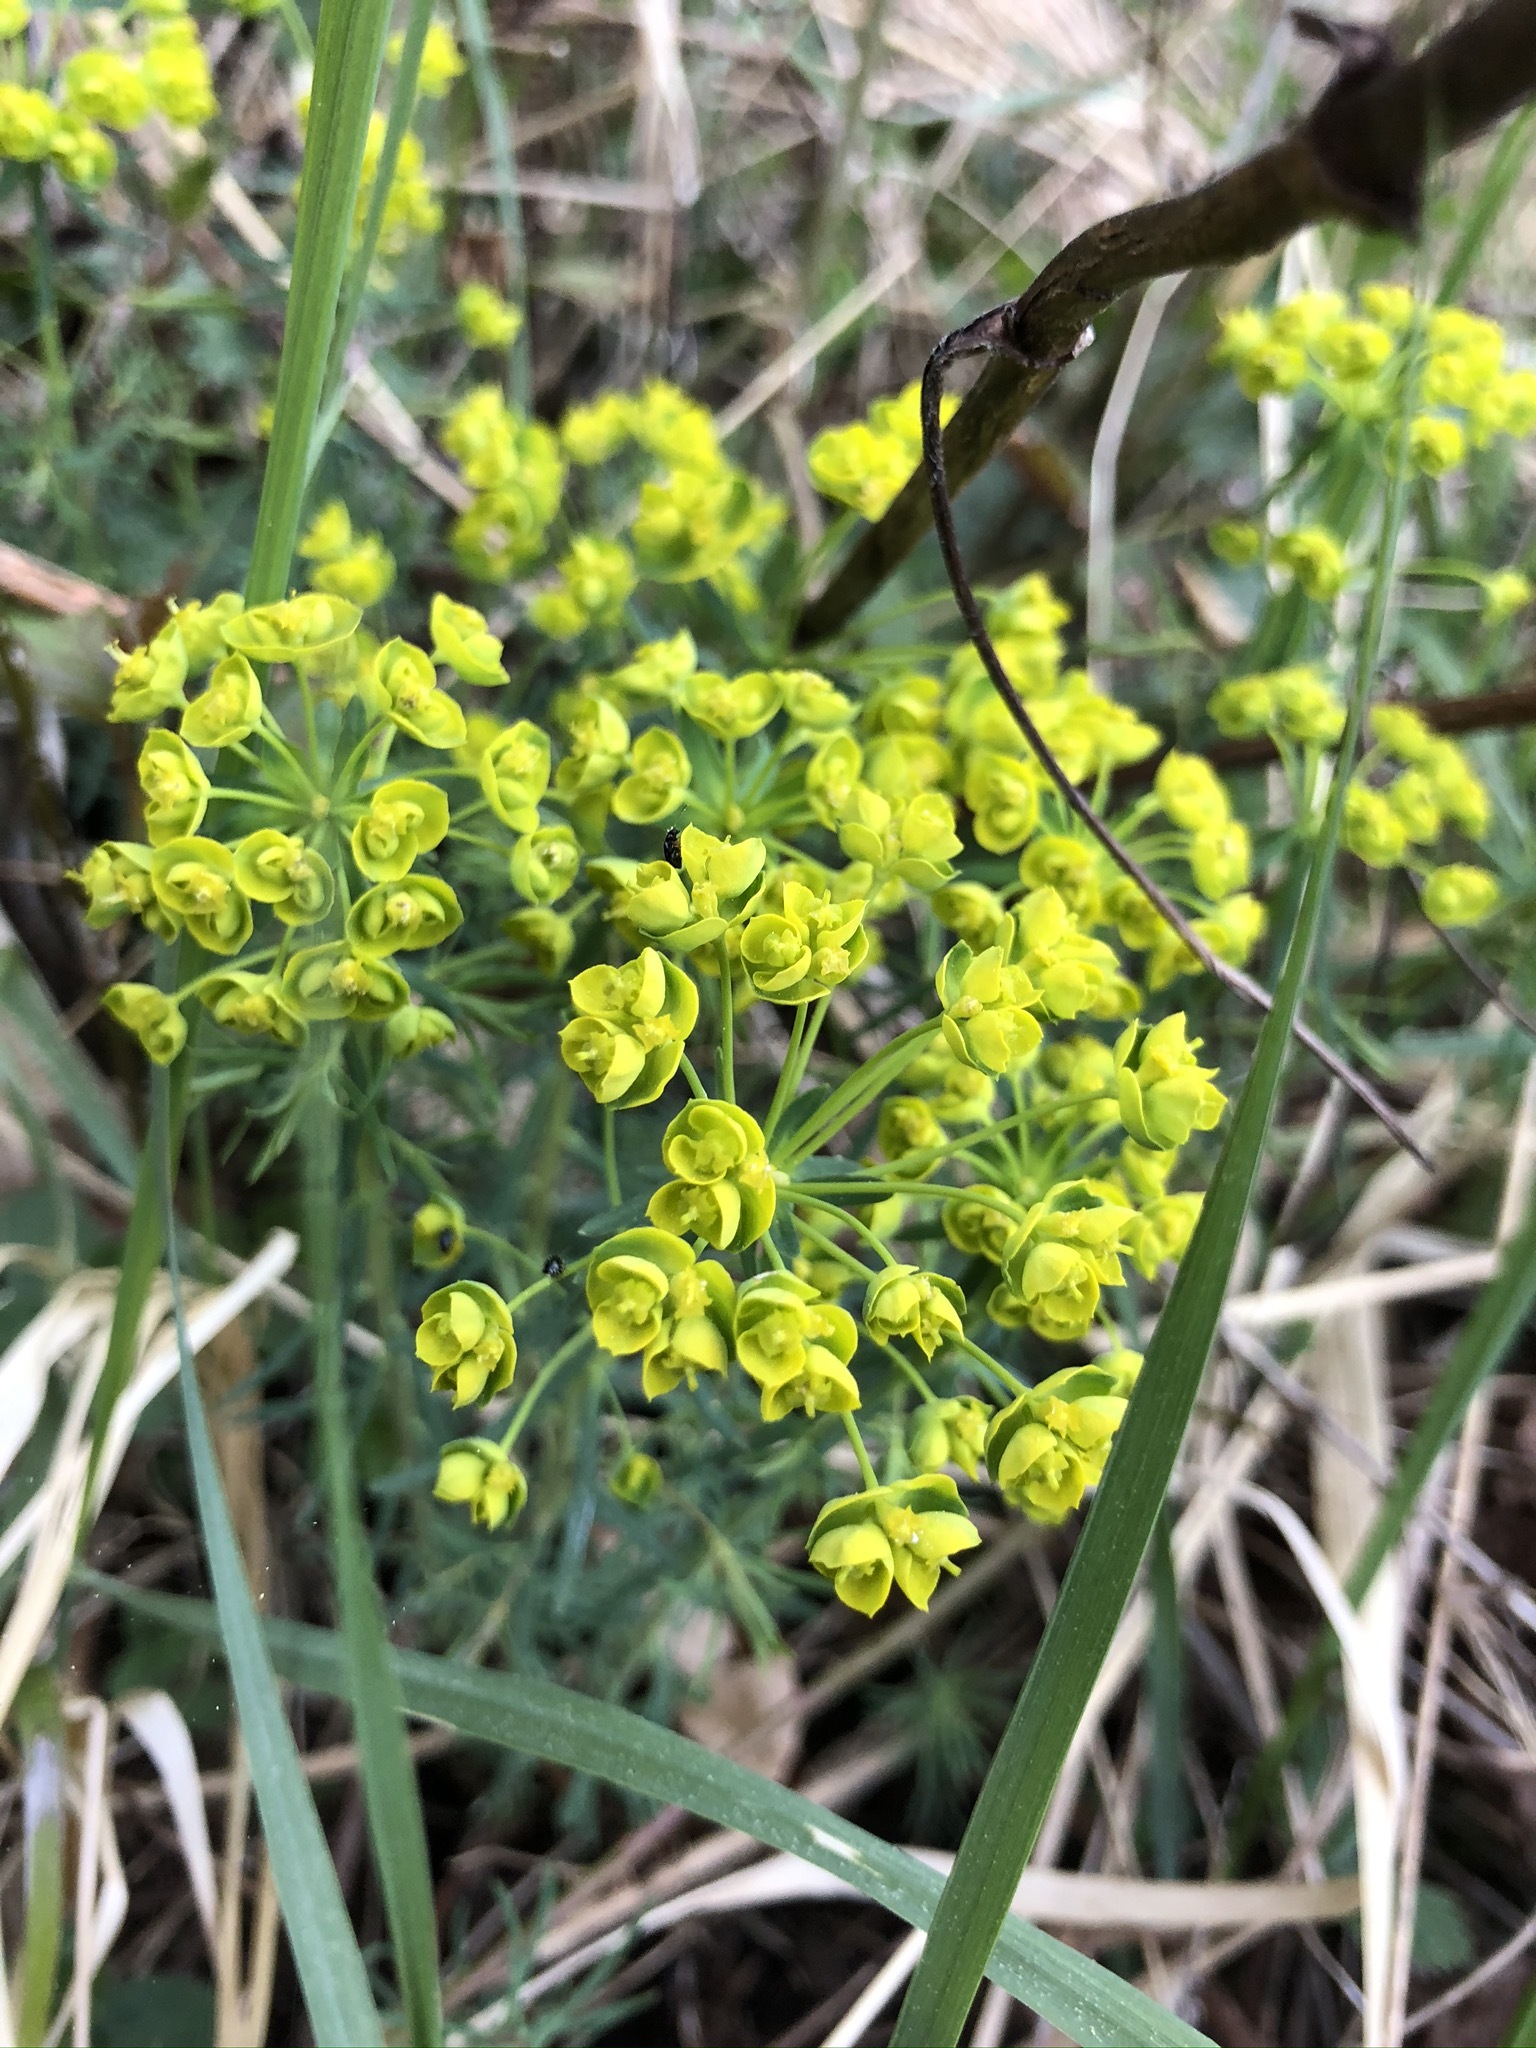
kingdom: Plantae
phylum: Tracheophyta
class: Magnoliopsida
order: Malpighiales
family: Euphorbiaceae
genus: Euphorbia
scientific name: Euphorbia cyparissias
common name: Cypress spurge
